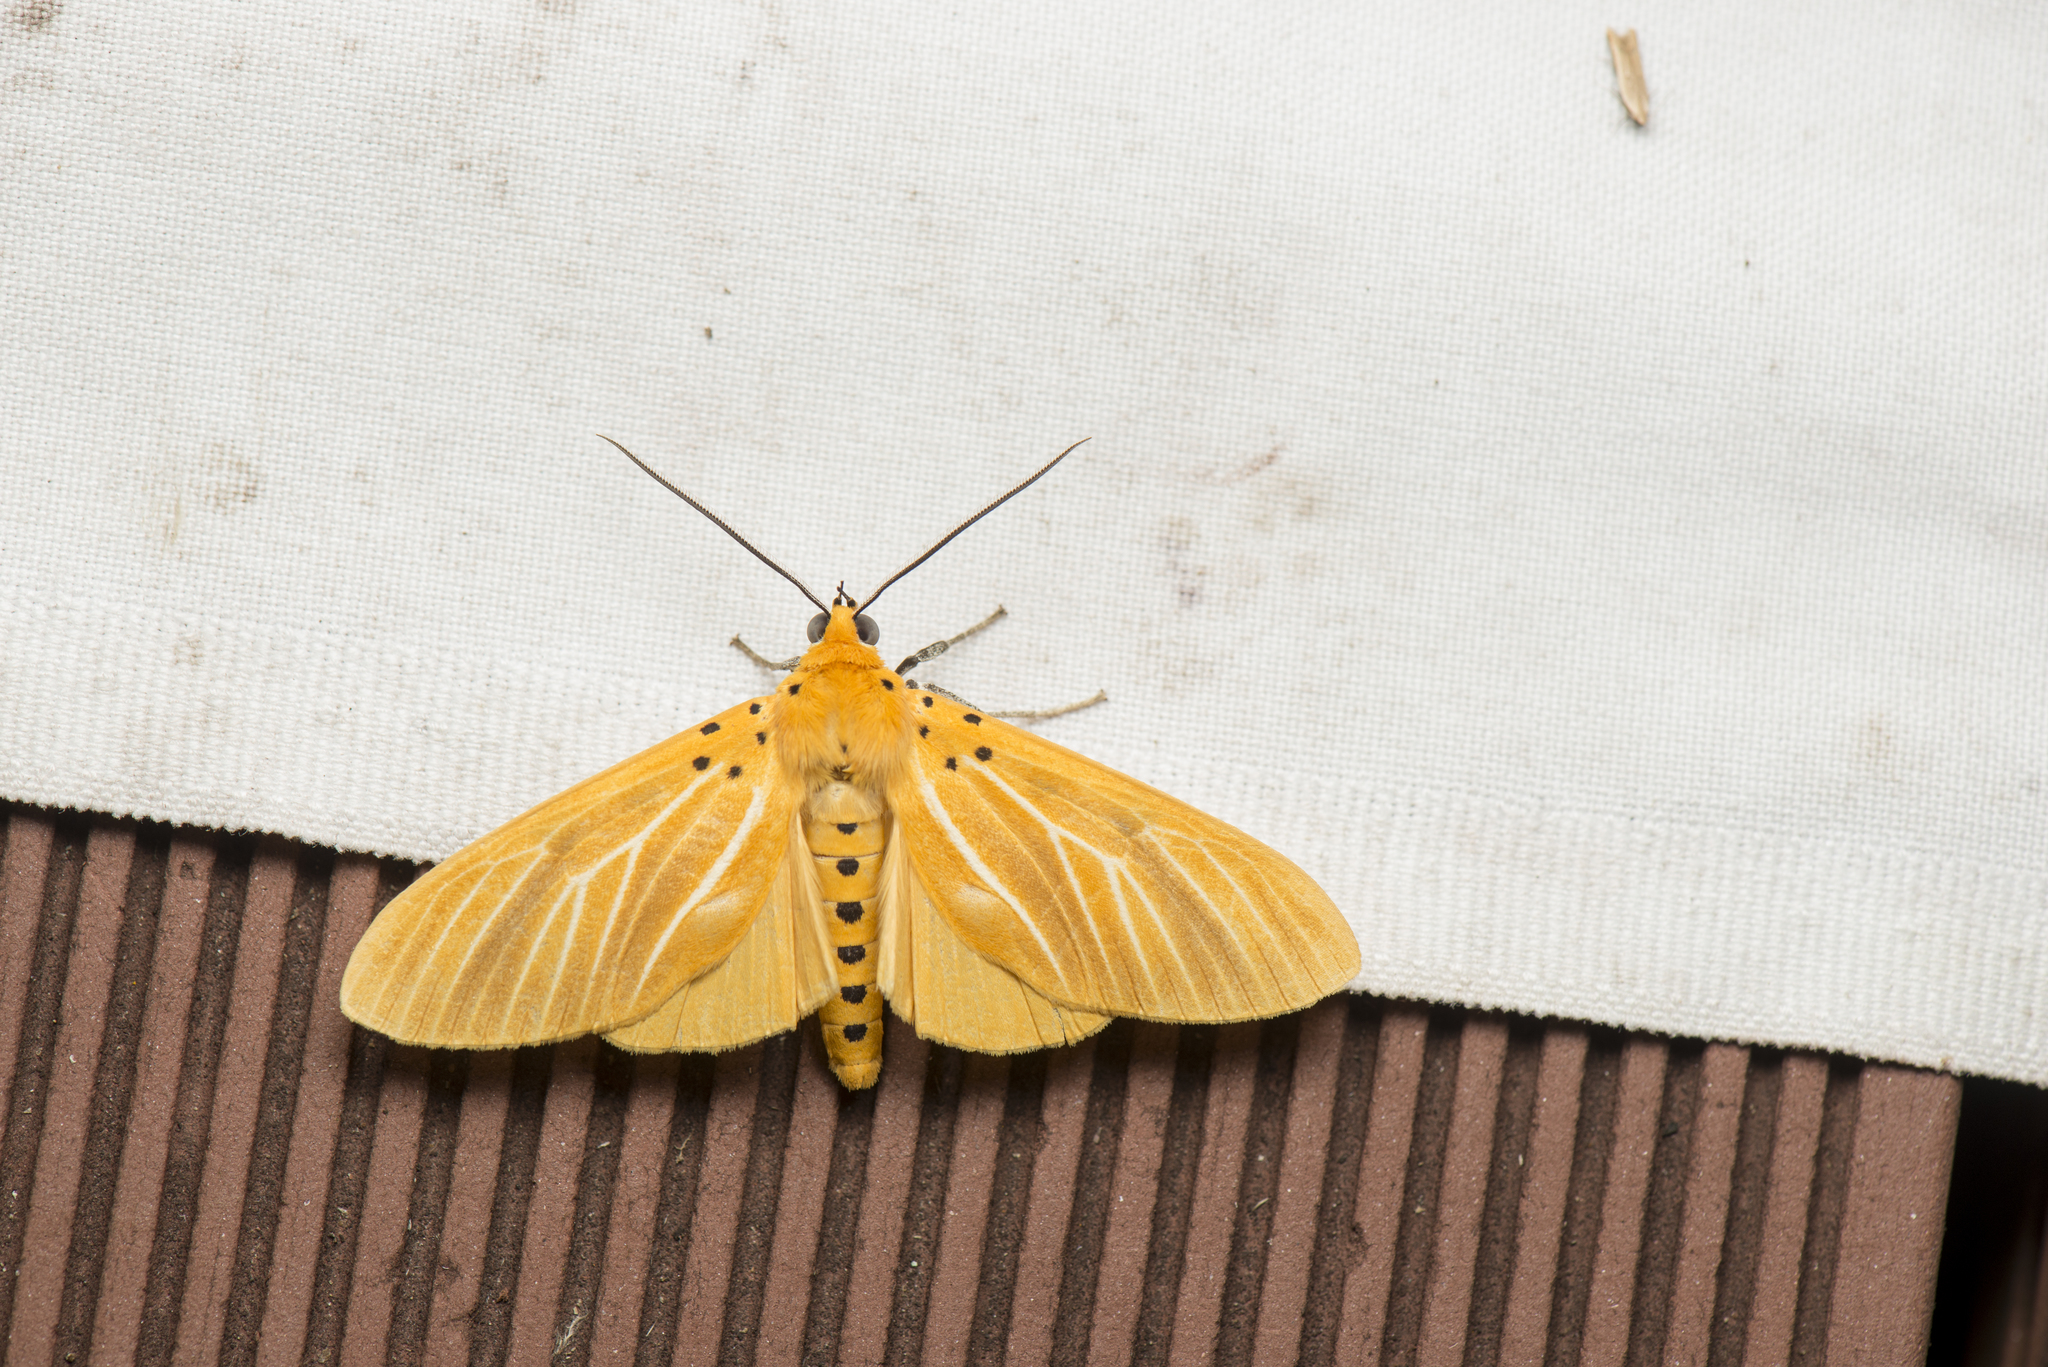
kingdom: Animalia
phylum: Arthropoda
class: Insecta
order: Lepidoptera
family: Erebidae
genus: Asota
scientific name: Asota egens
